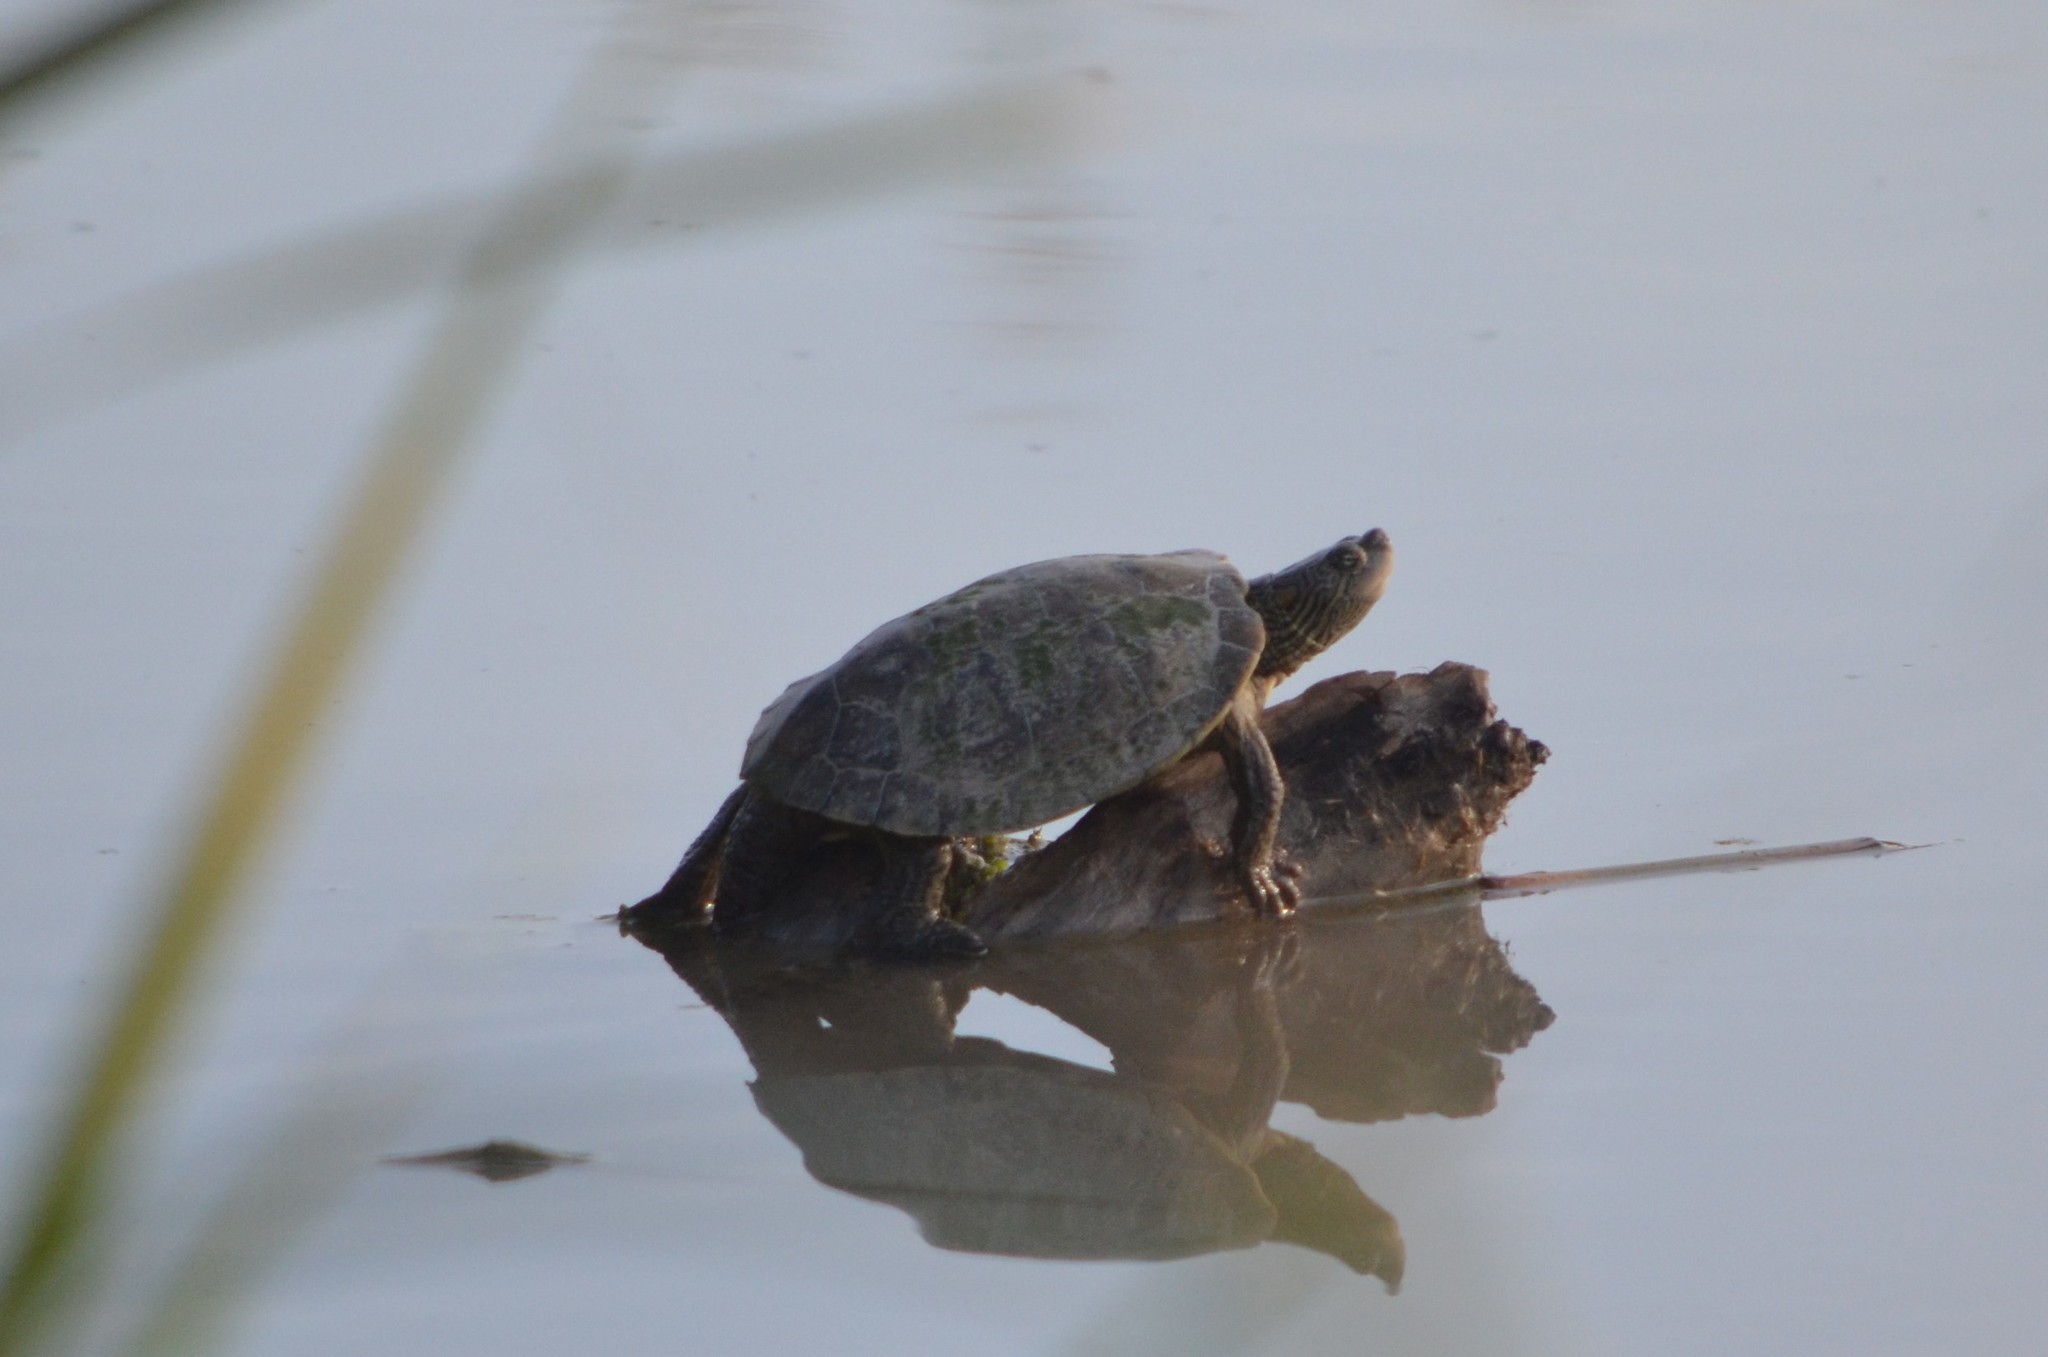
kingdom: Animalia
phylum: Chordata
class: Testudines
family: Emydidae
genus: Trachemys
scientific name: Trachemys gaigeae
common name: Big bend slider
